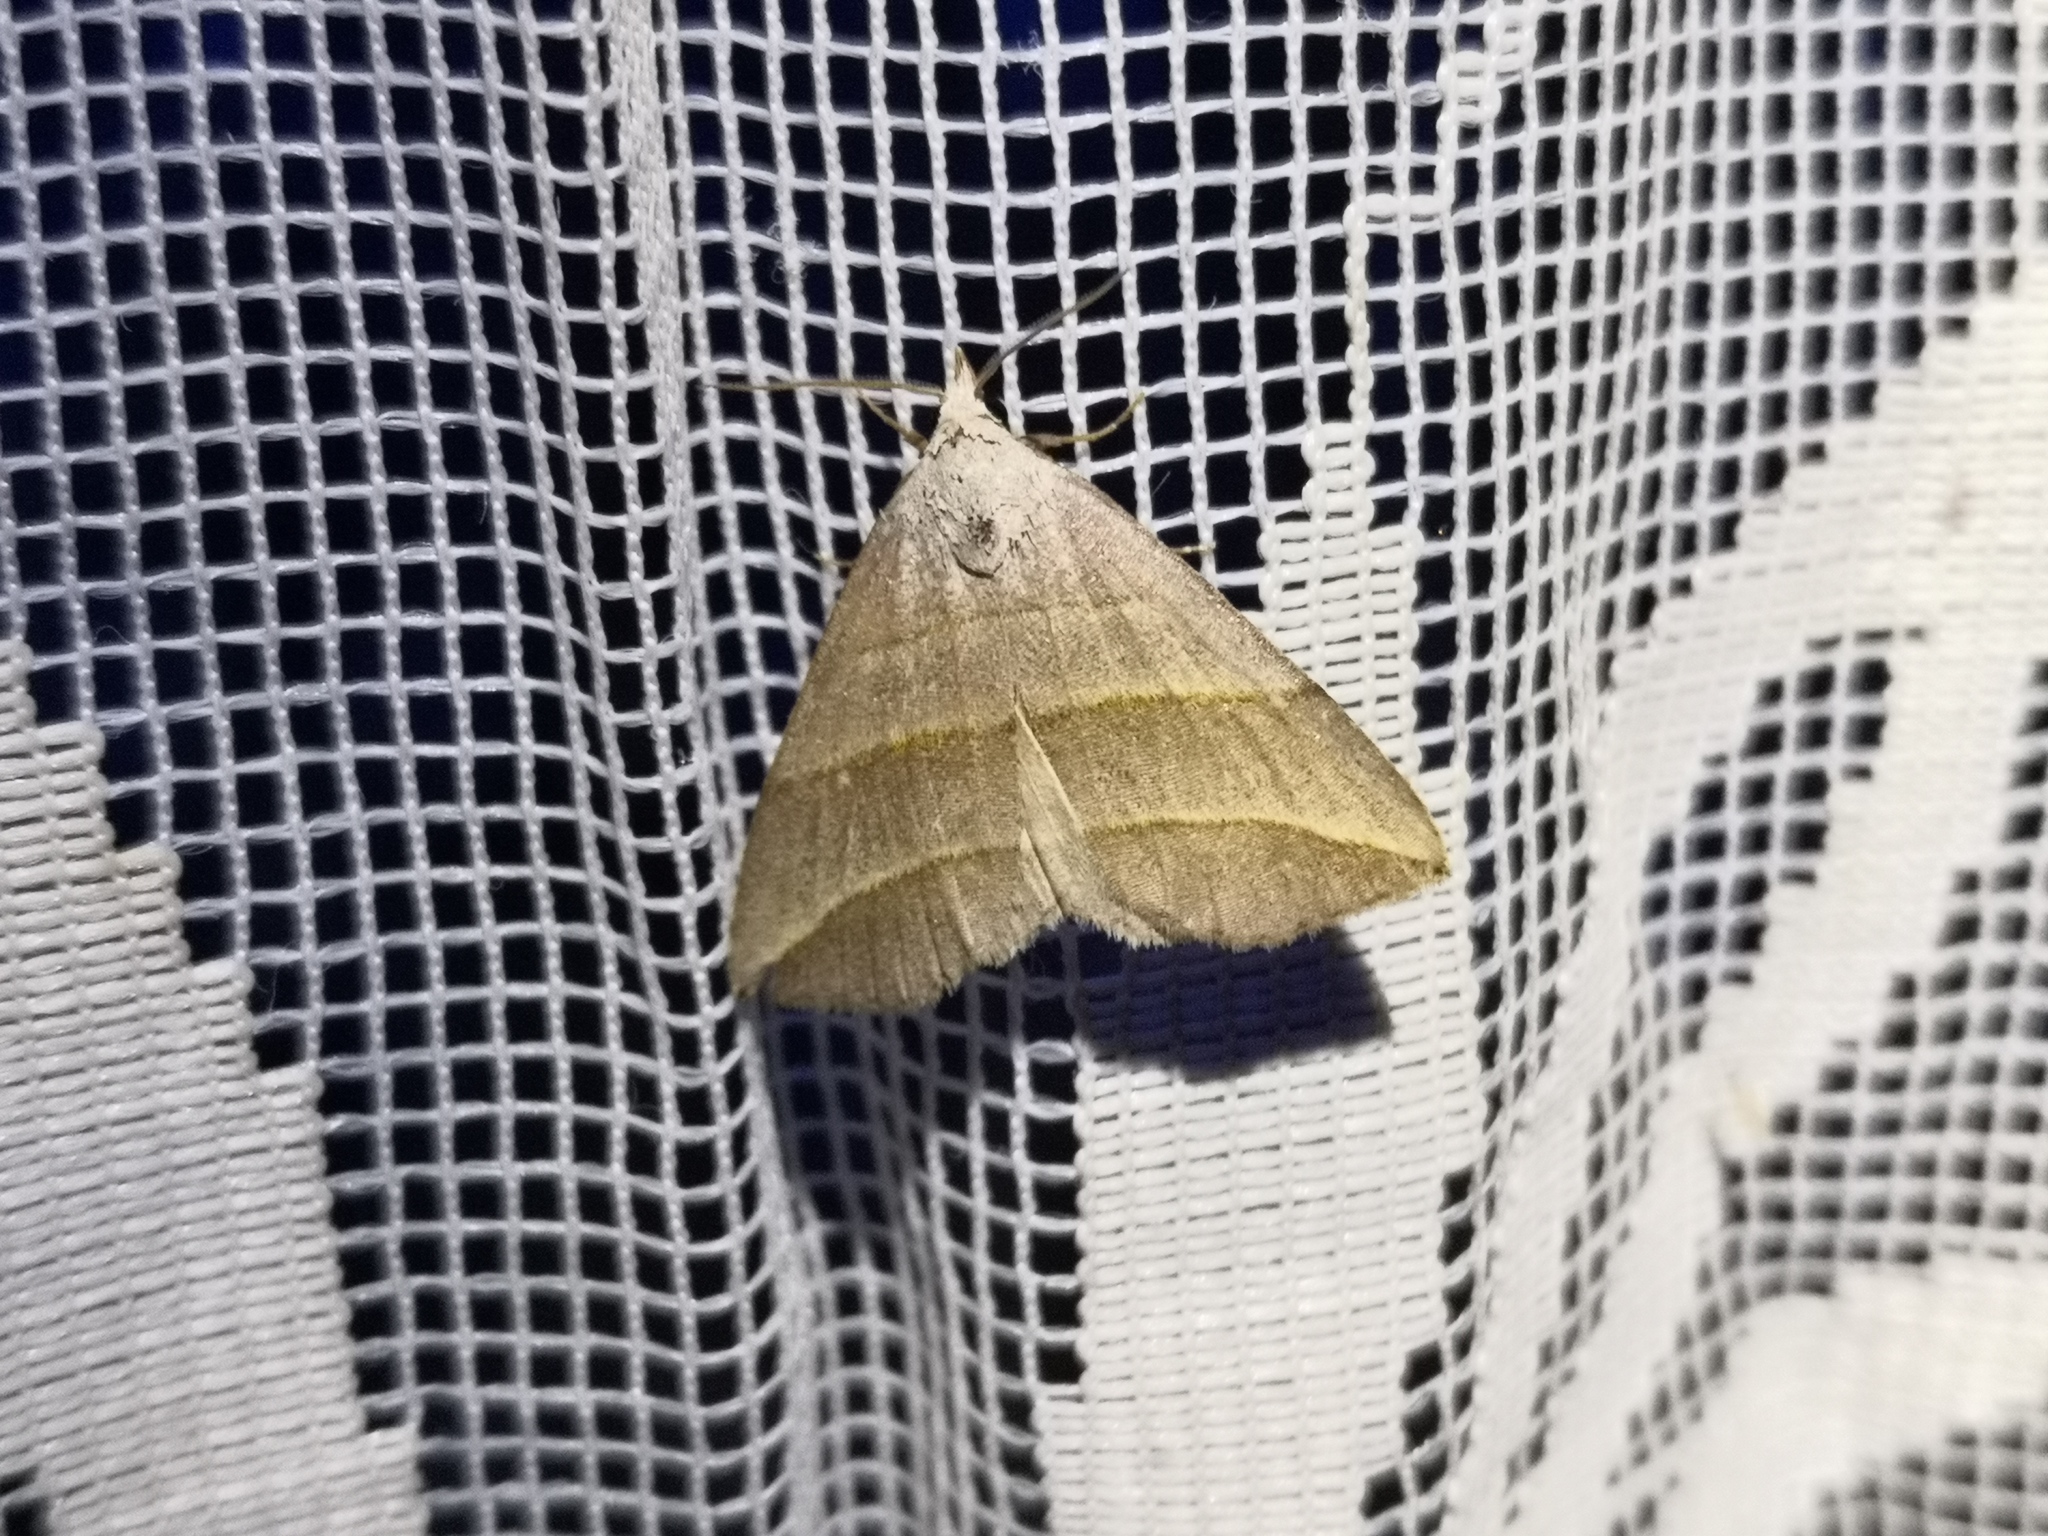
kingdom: Animalia
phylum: Arthropoda
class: Insecta
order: Lepidoptera
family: Erebidae
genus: Colobochyla
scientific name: Colobochyla salicalis
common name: Lesser belle
